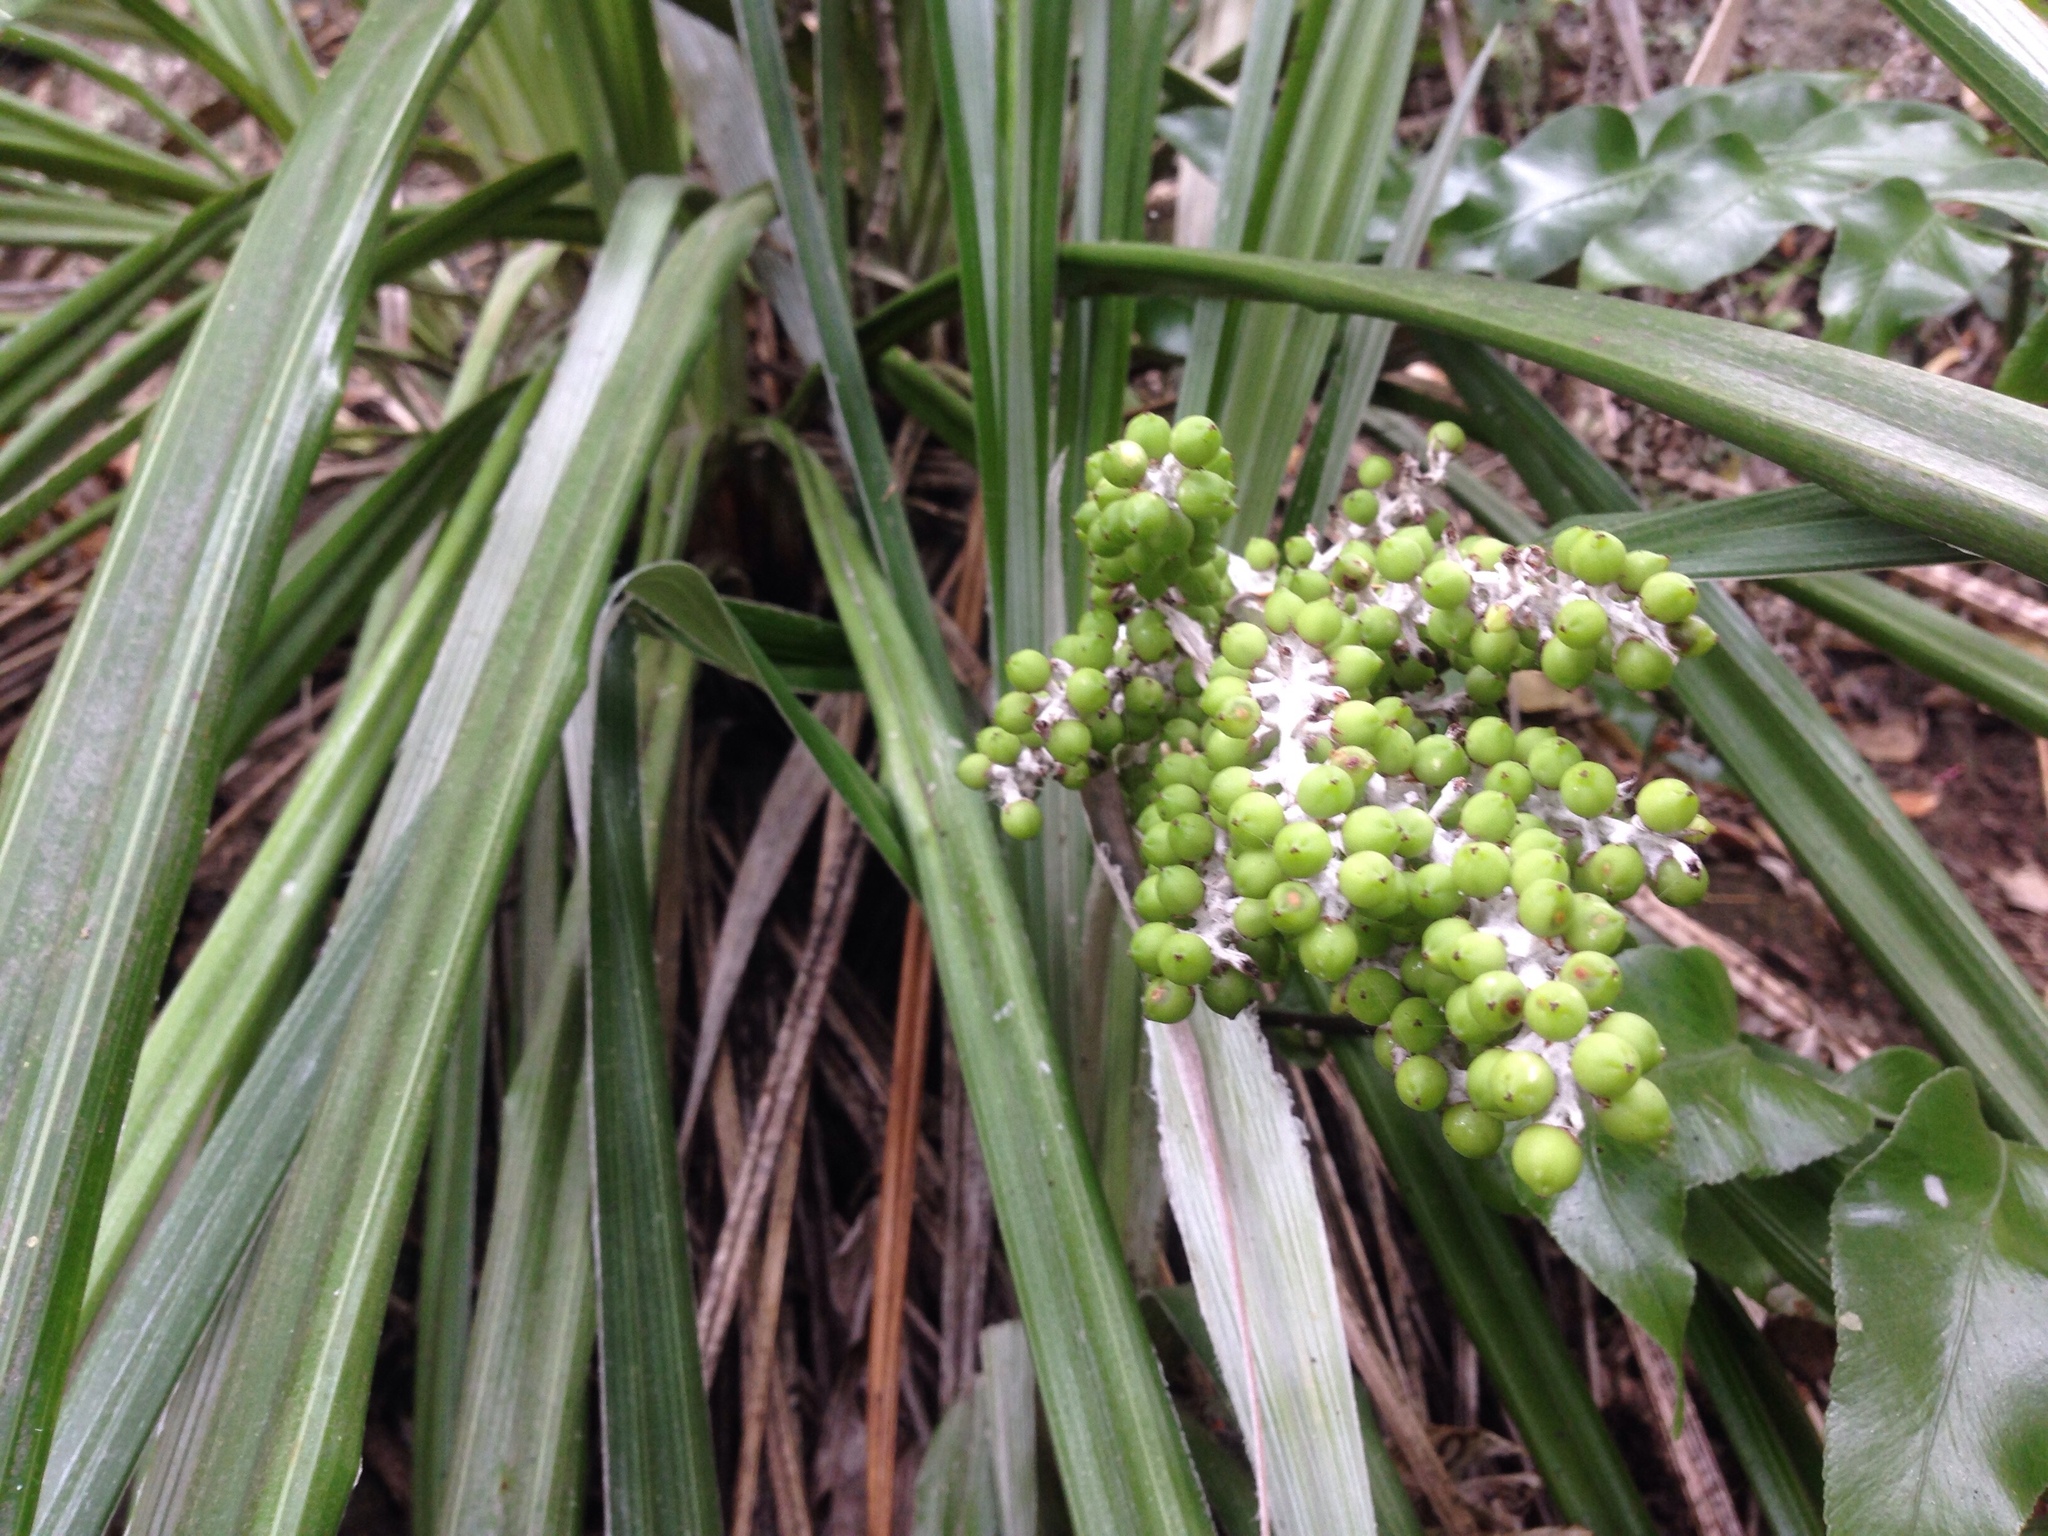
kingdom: Plantae
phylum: Tracheophyta
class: Liliopsida
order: Asparagales
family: Asteliaceae
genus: Astelia
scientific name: Astelia banksii
